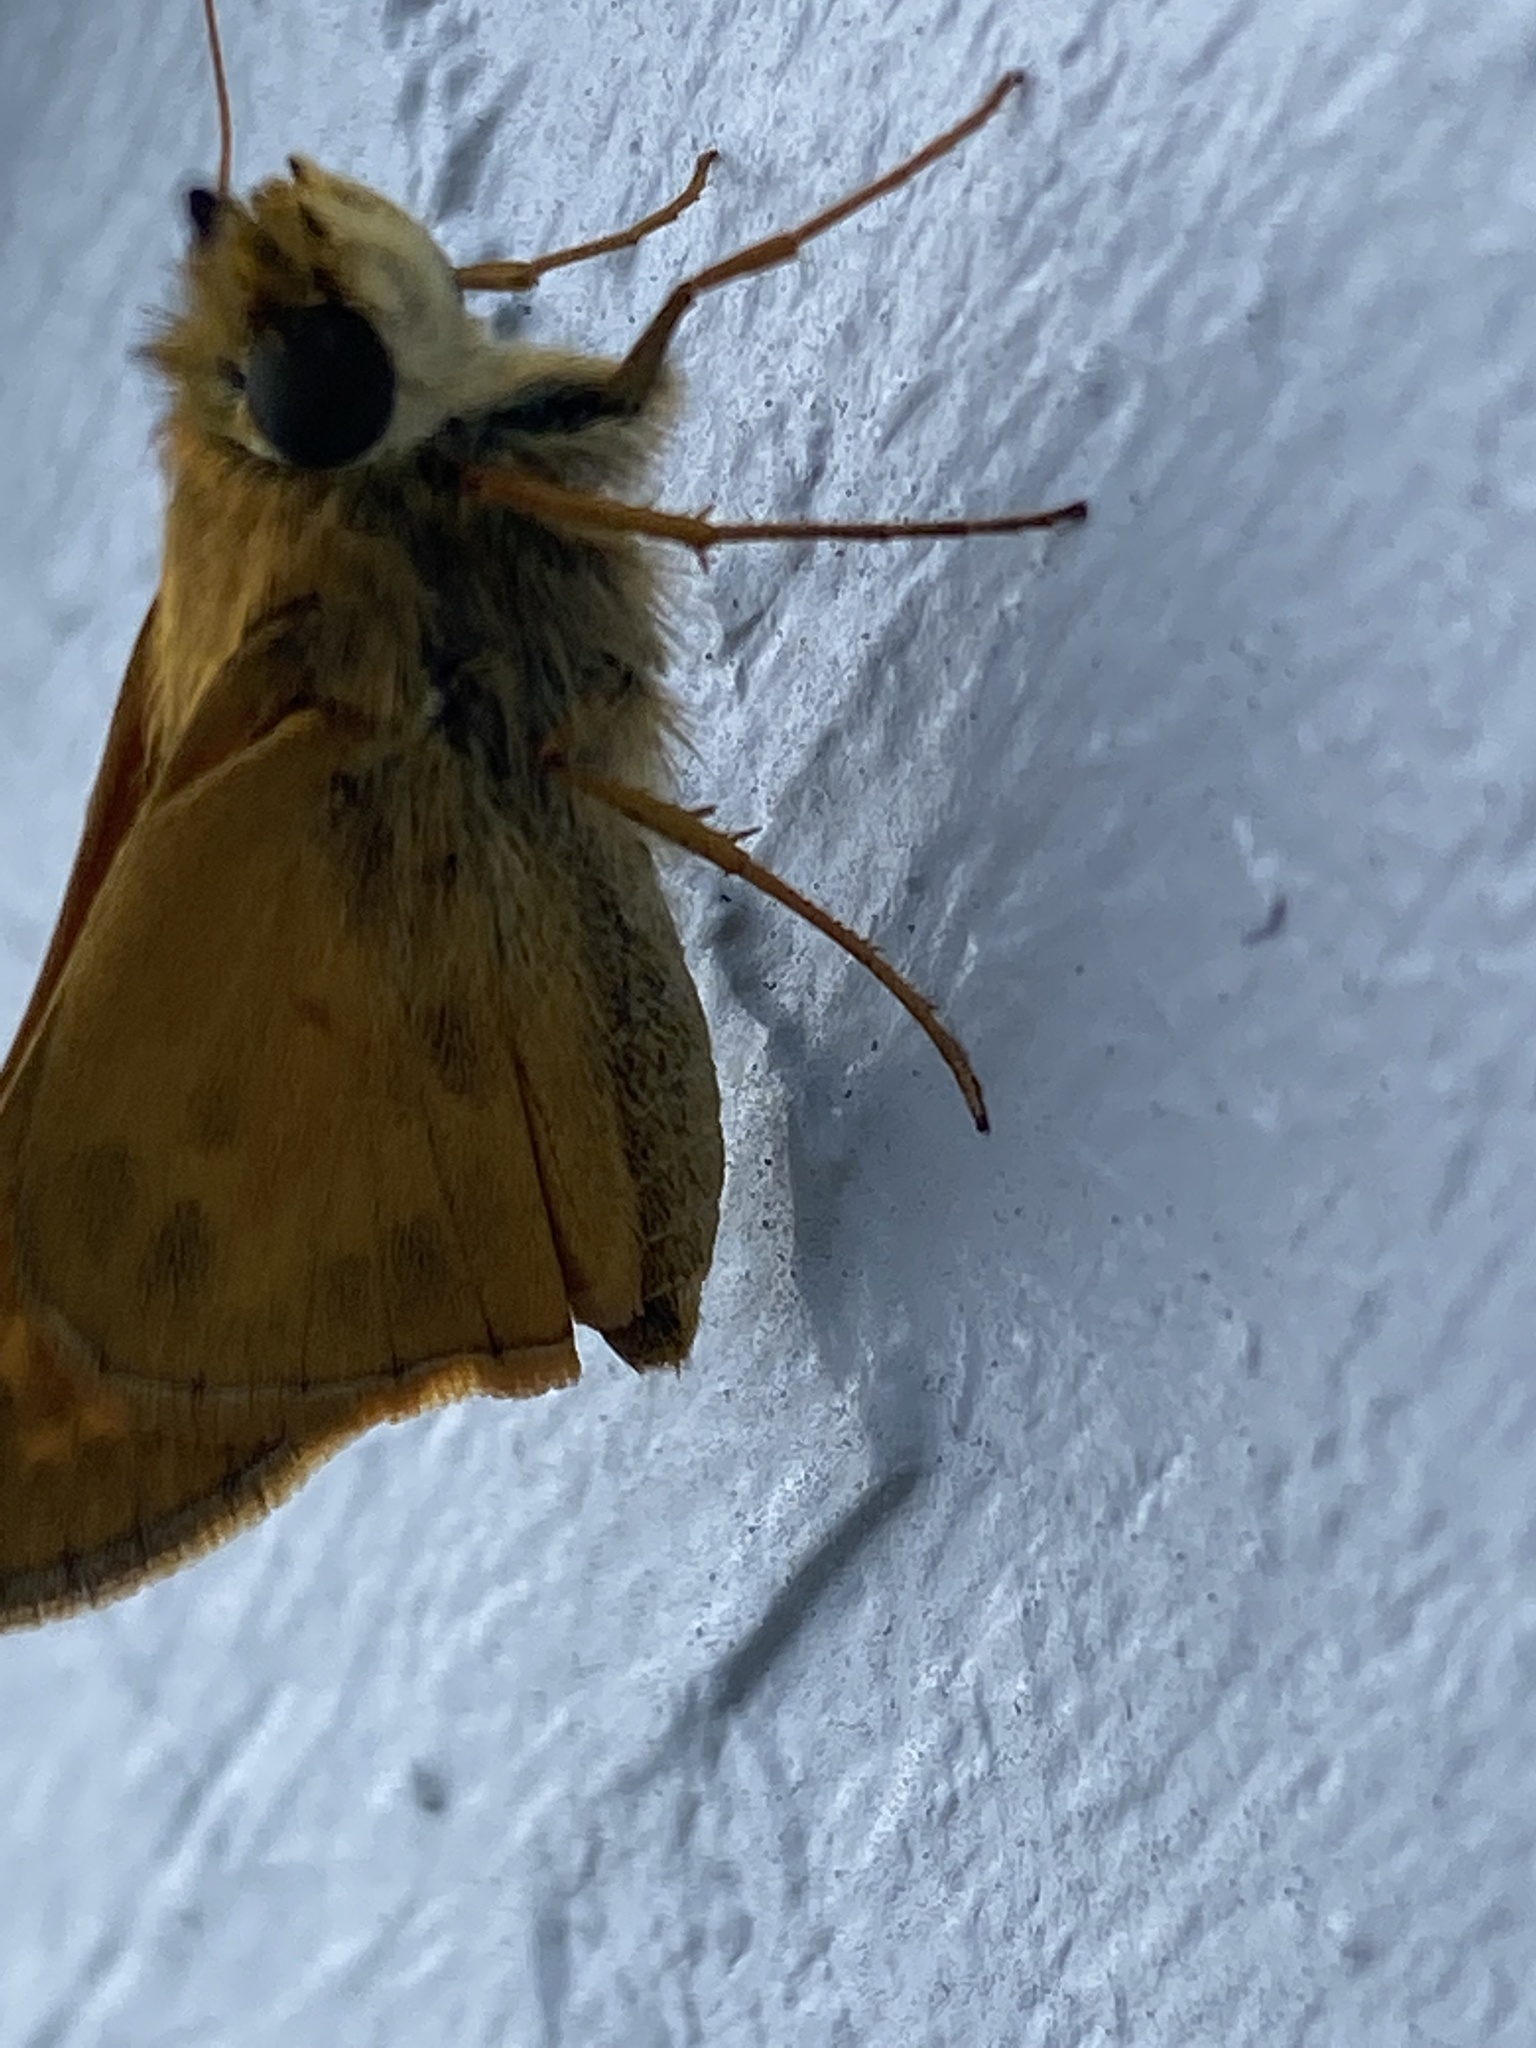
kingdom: Animalia
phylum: Arthropoda
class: Insecta
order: Lepidoptera
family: Hesperiidae
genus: Atalopedes
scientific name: Atalopedes
